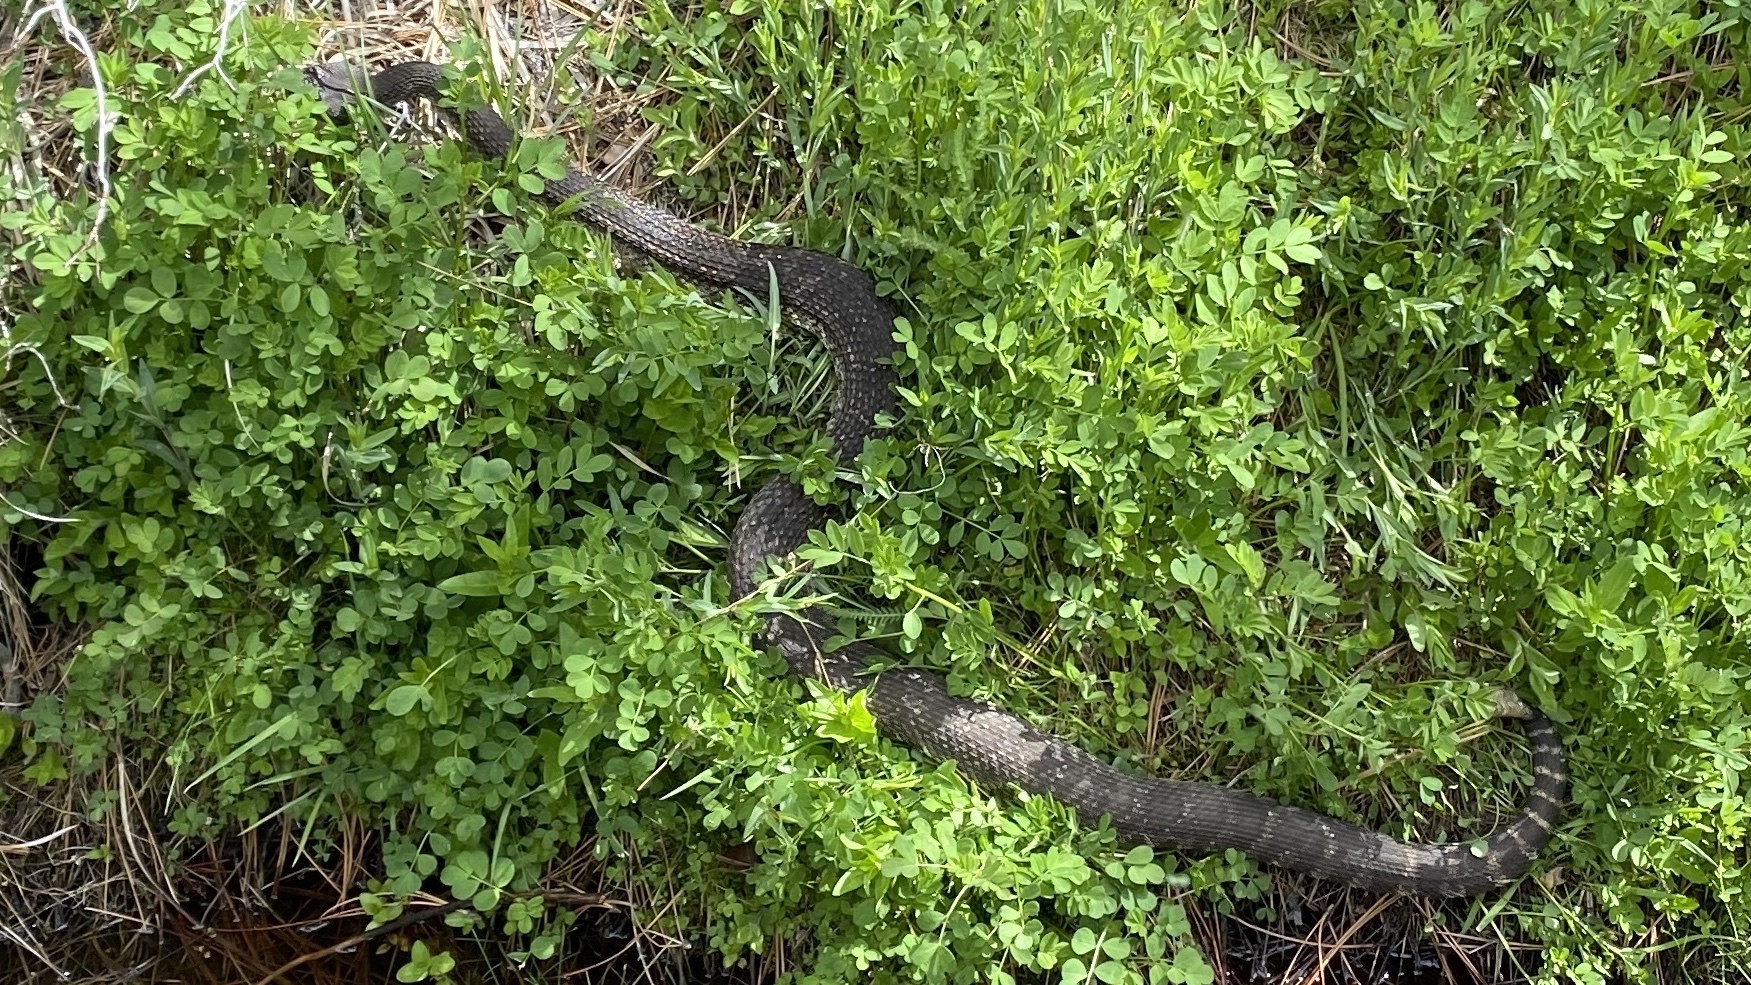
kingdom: Animalia
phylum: Chordata
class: Squamata
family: Viperidae
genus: Crotalus
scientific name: Crotalus oreganus
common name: Abyssus
